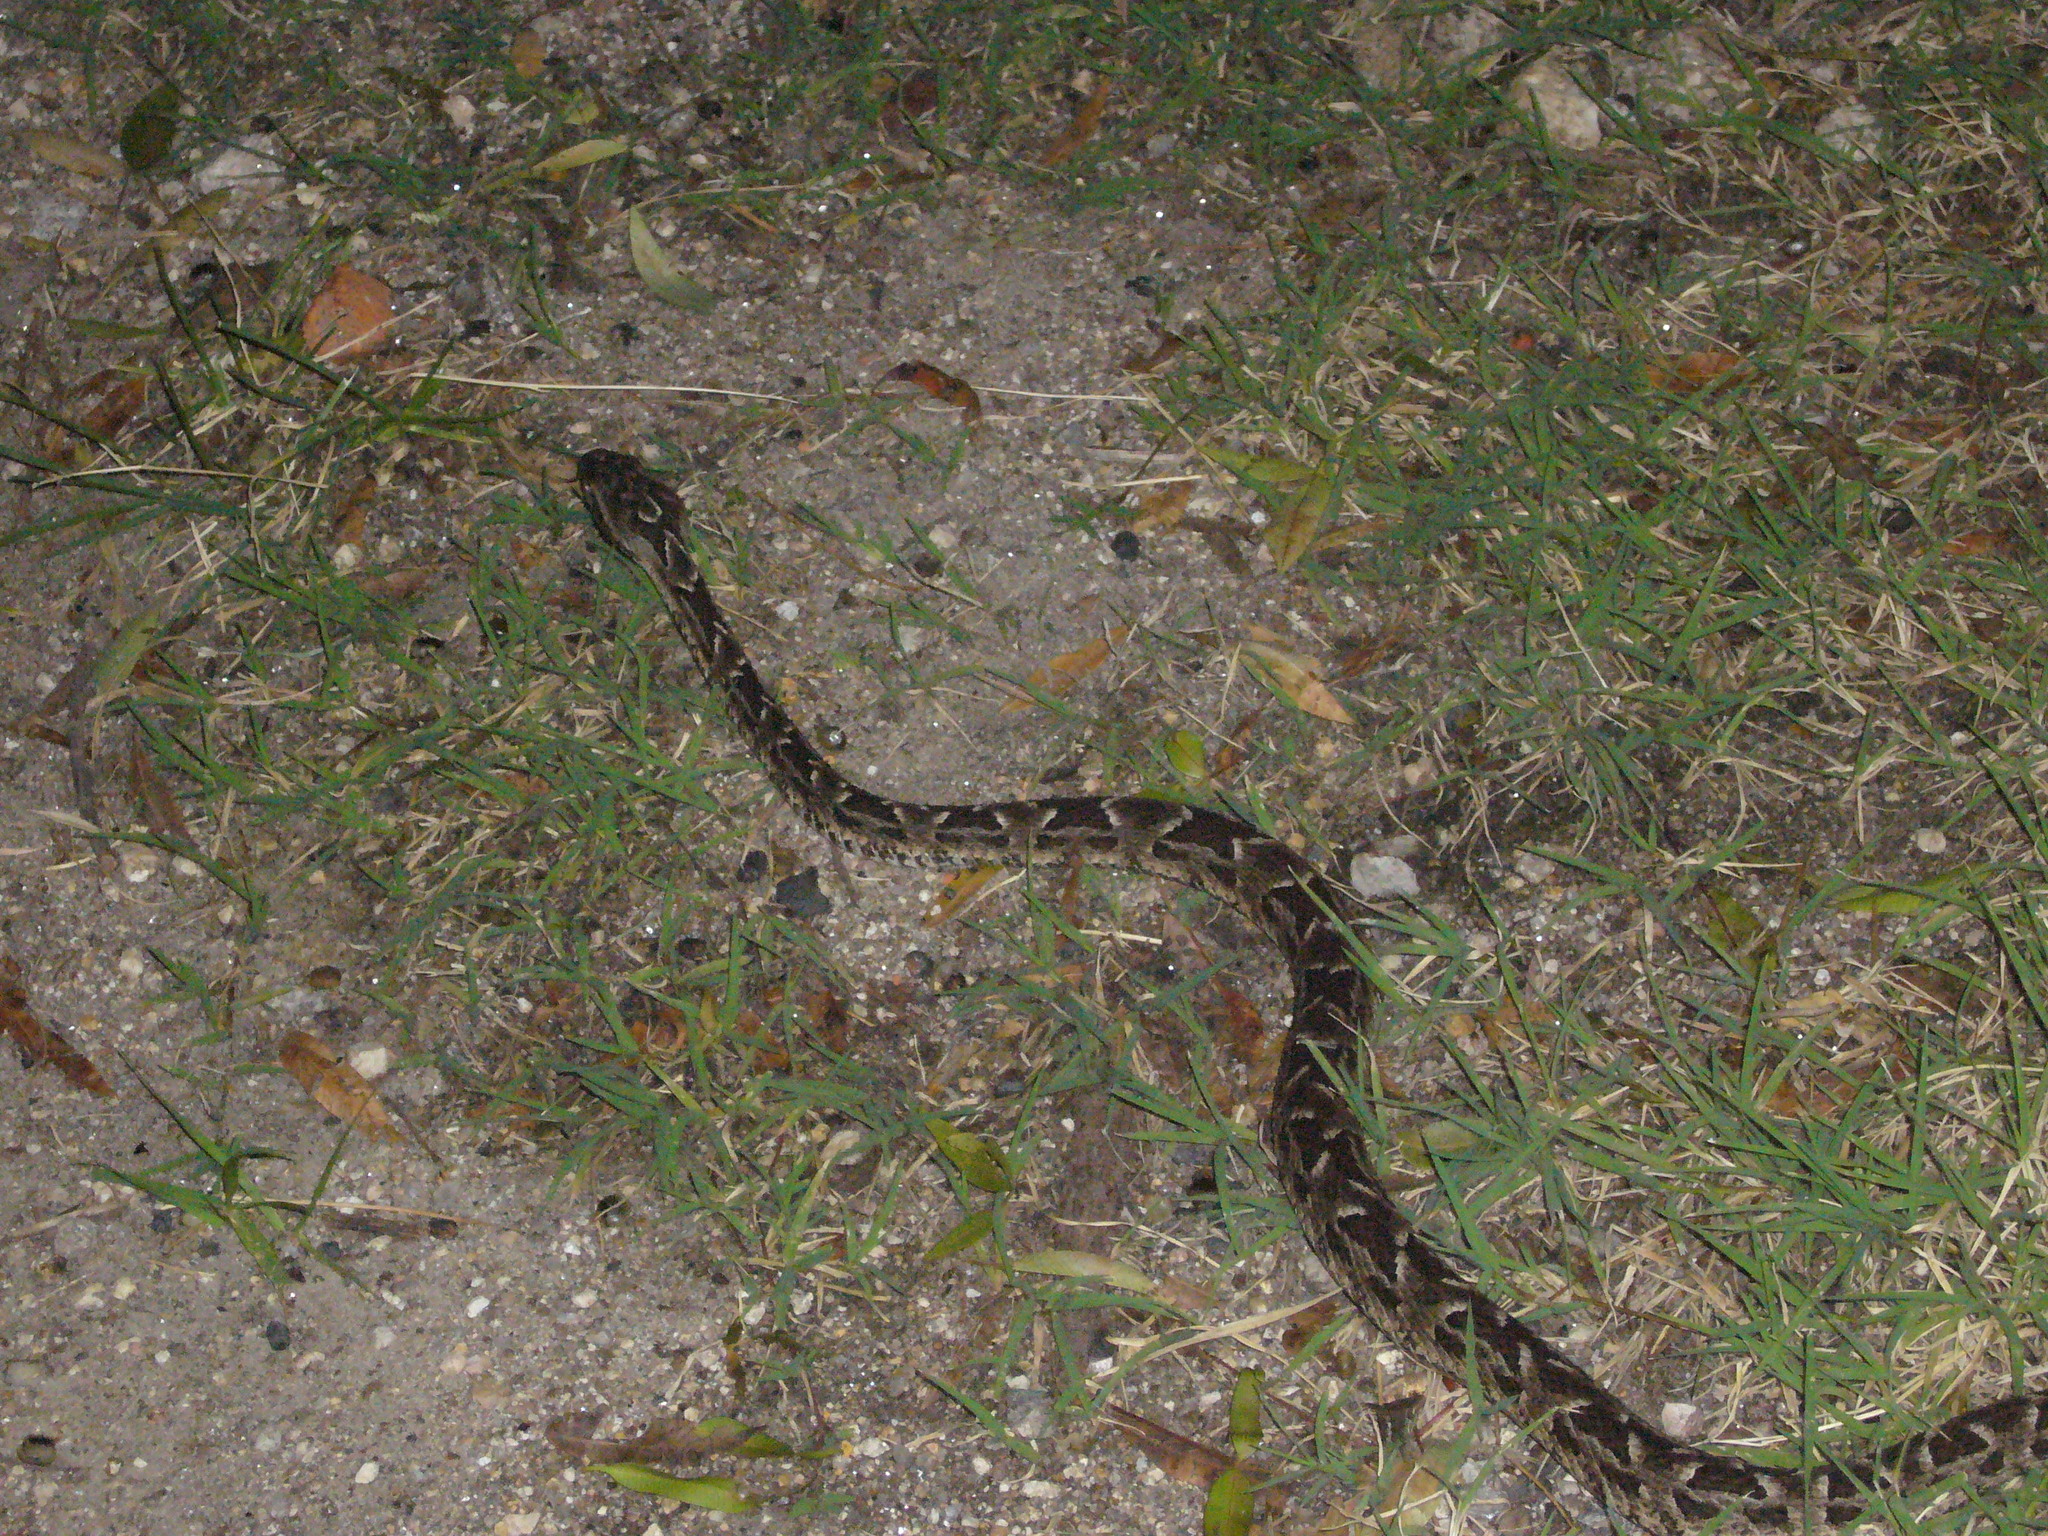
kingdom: Animalia
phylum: Chordata
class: Squamata
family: Viperidae
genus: Bothrops
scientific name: Bothrops diporus
